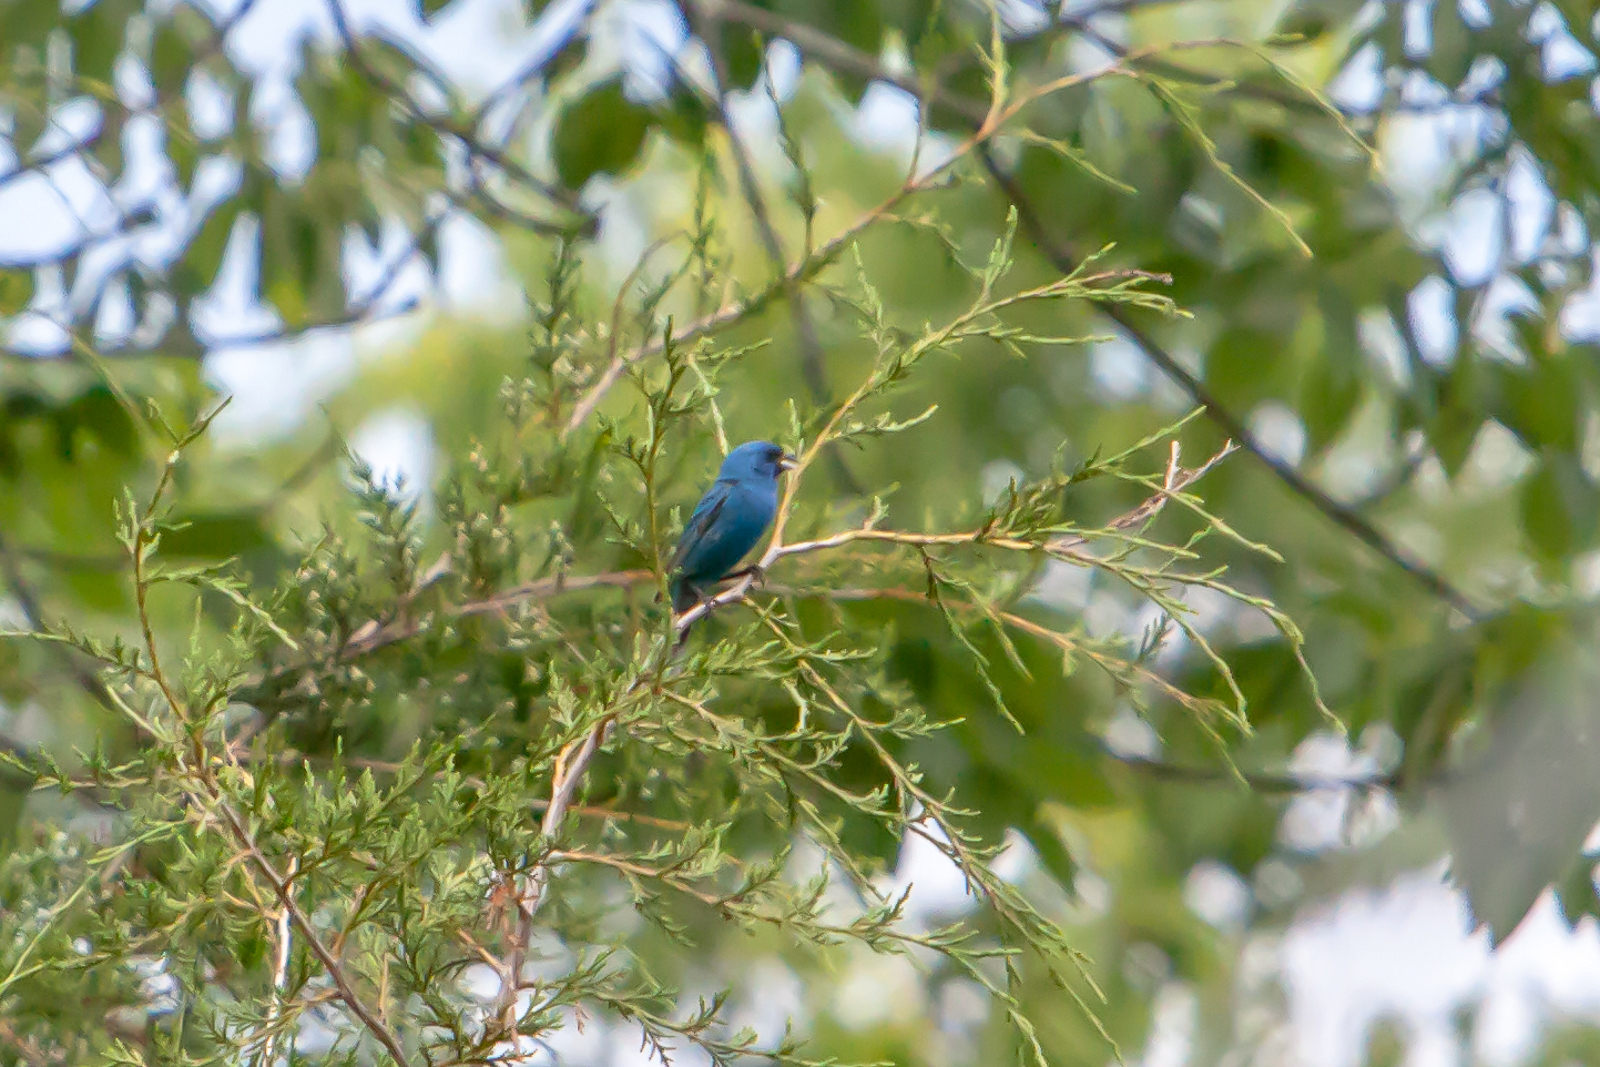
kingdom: Animalia
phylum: Chordata
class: Aves
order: Passeriformes
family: Cardinalidae
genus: Passerina
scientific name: Passerina cyanea
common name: Indigo bunting
